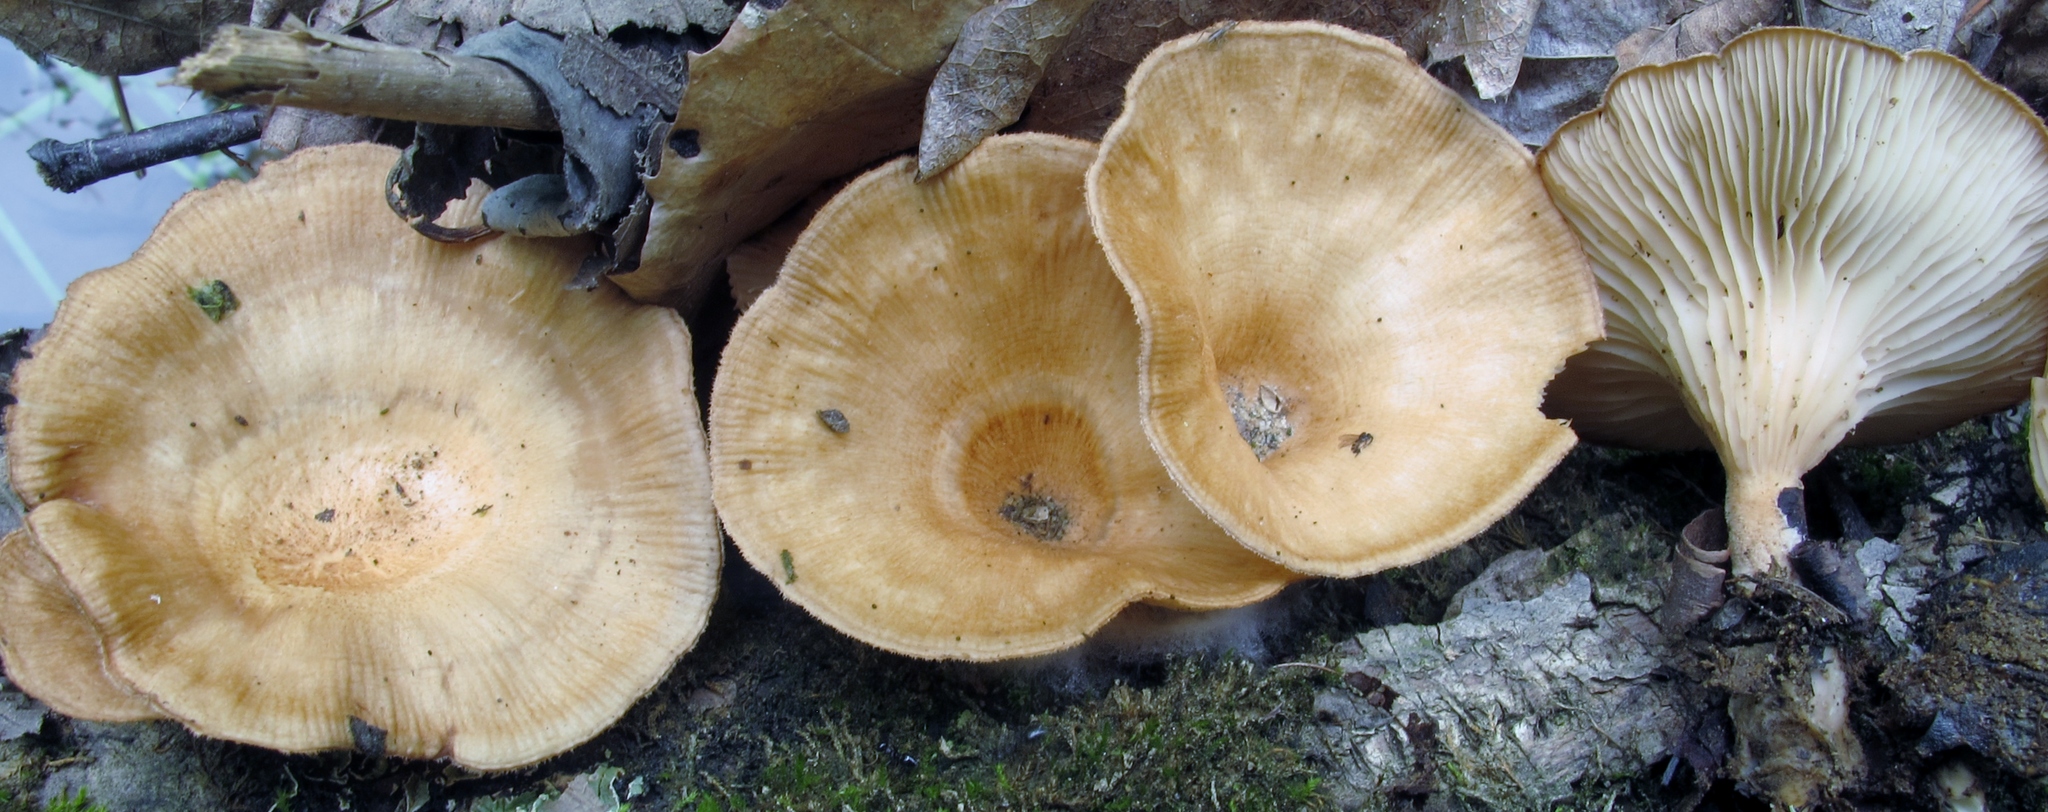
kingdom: Fungi
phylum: Basidiomycota
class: Agaricomycetes
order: Polyporales
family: Panaceae
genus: Panus
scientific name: Panus neostrigosus
